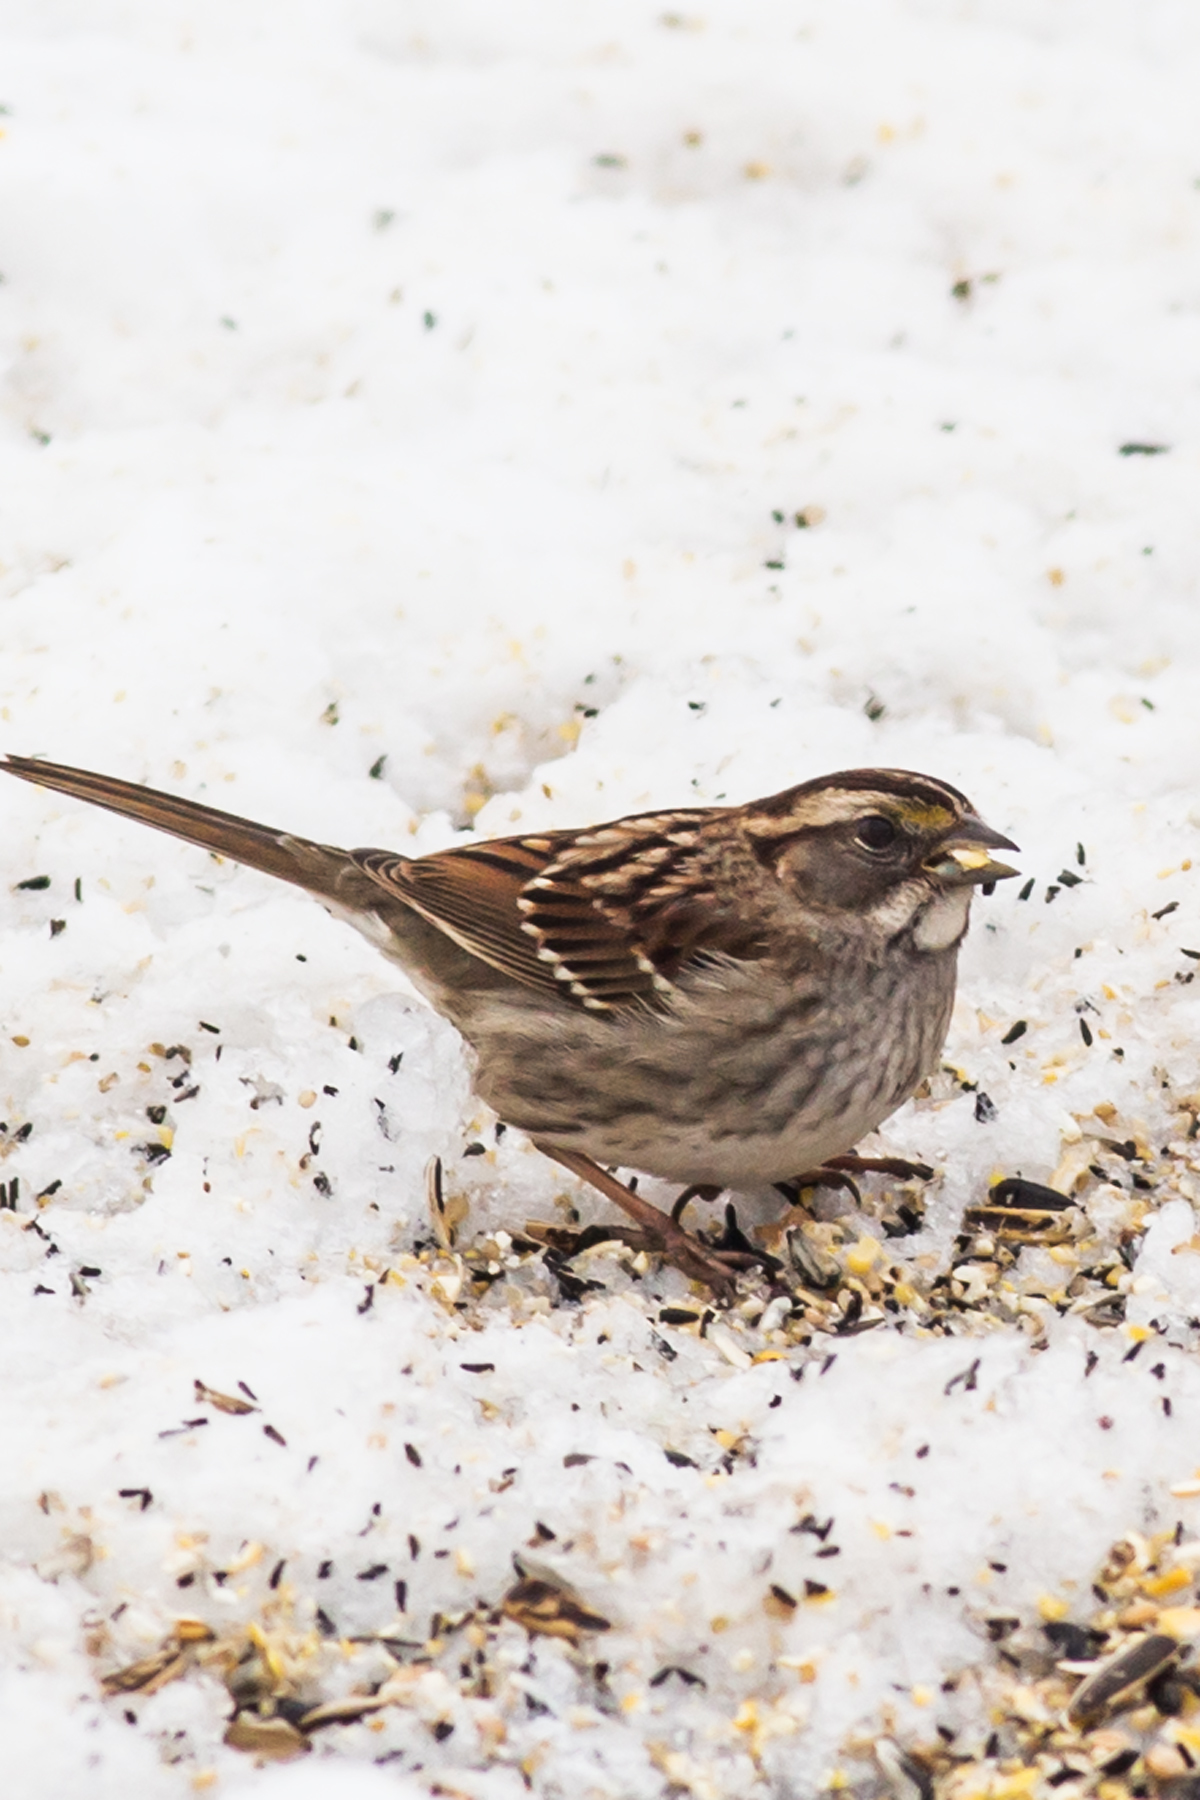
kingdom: Animalia
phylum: Chordata
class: Aves
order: Passeriformes
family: Passerellidae
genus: Zonotrichia
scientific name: Zonotrichia albicollis
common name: White-throated sparrow
